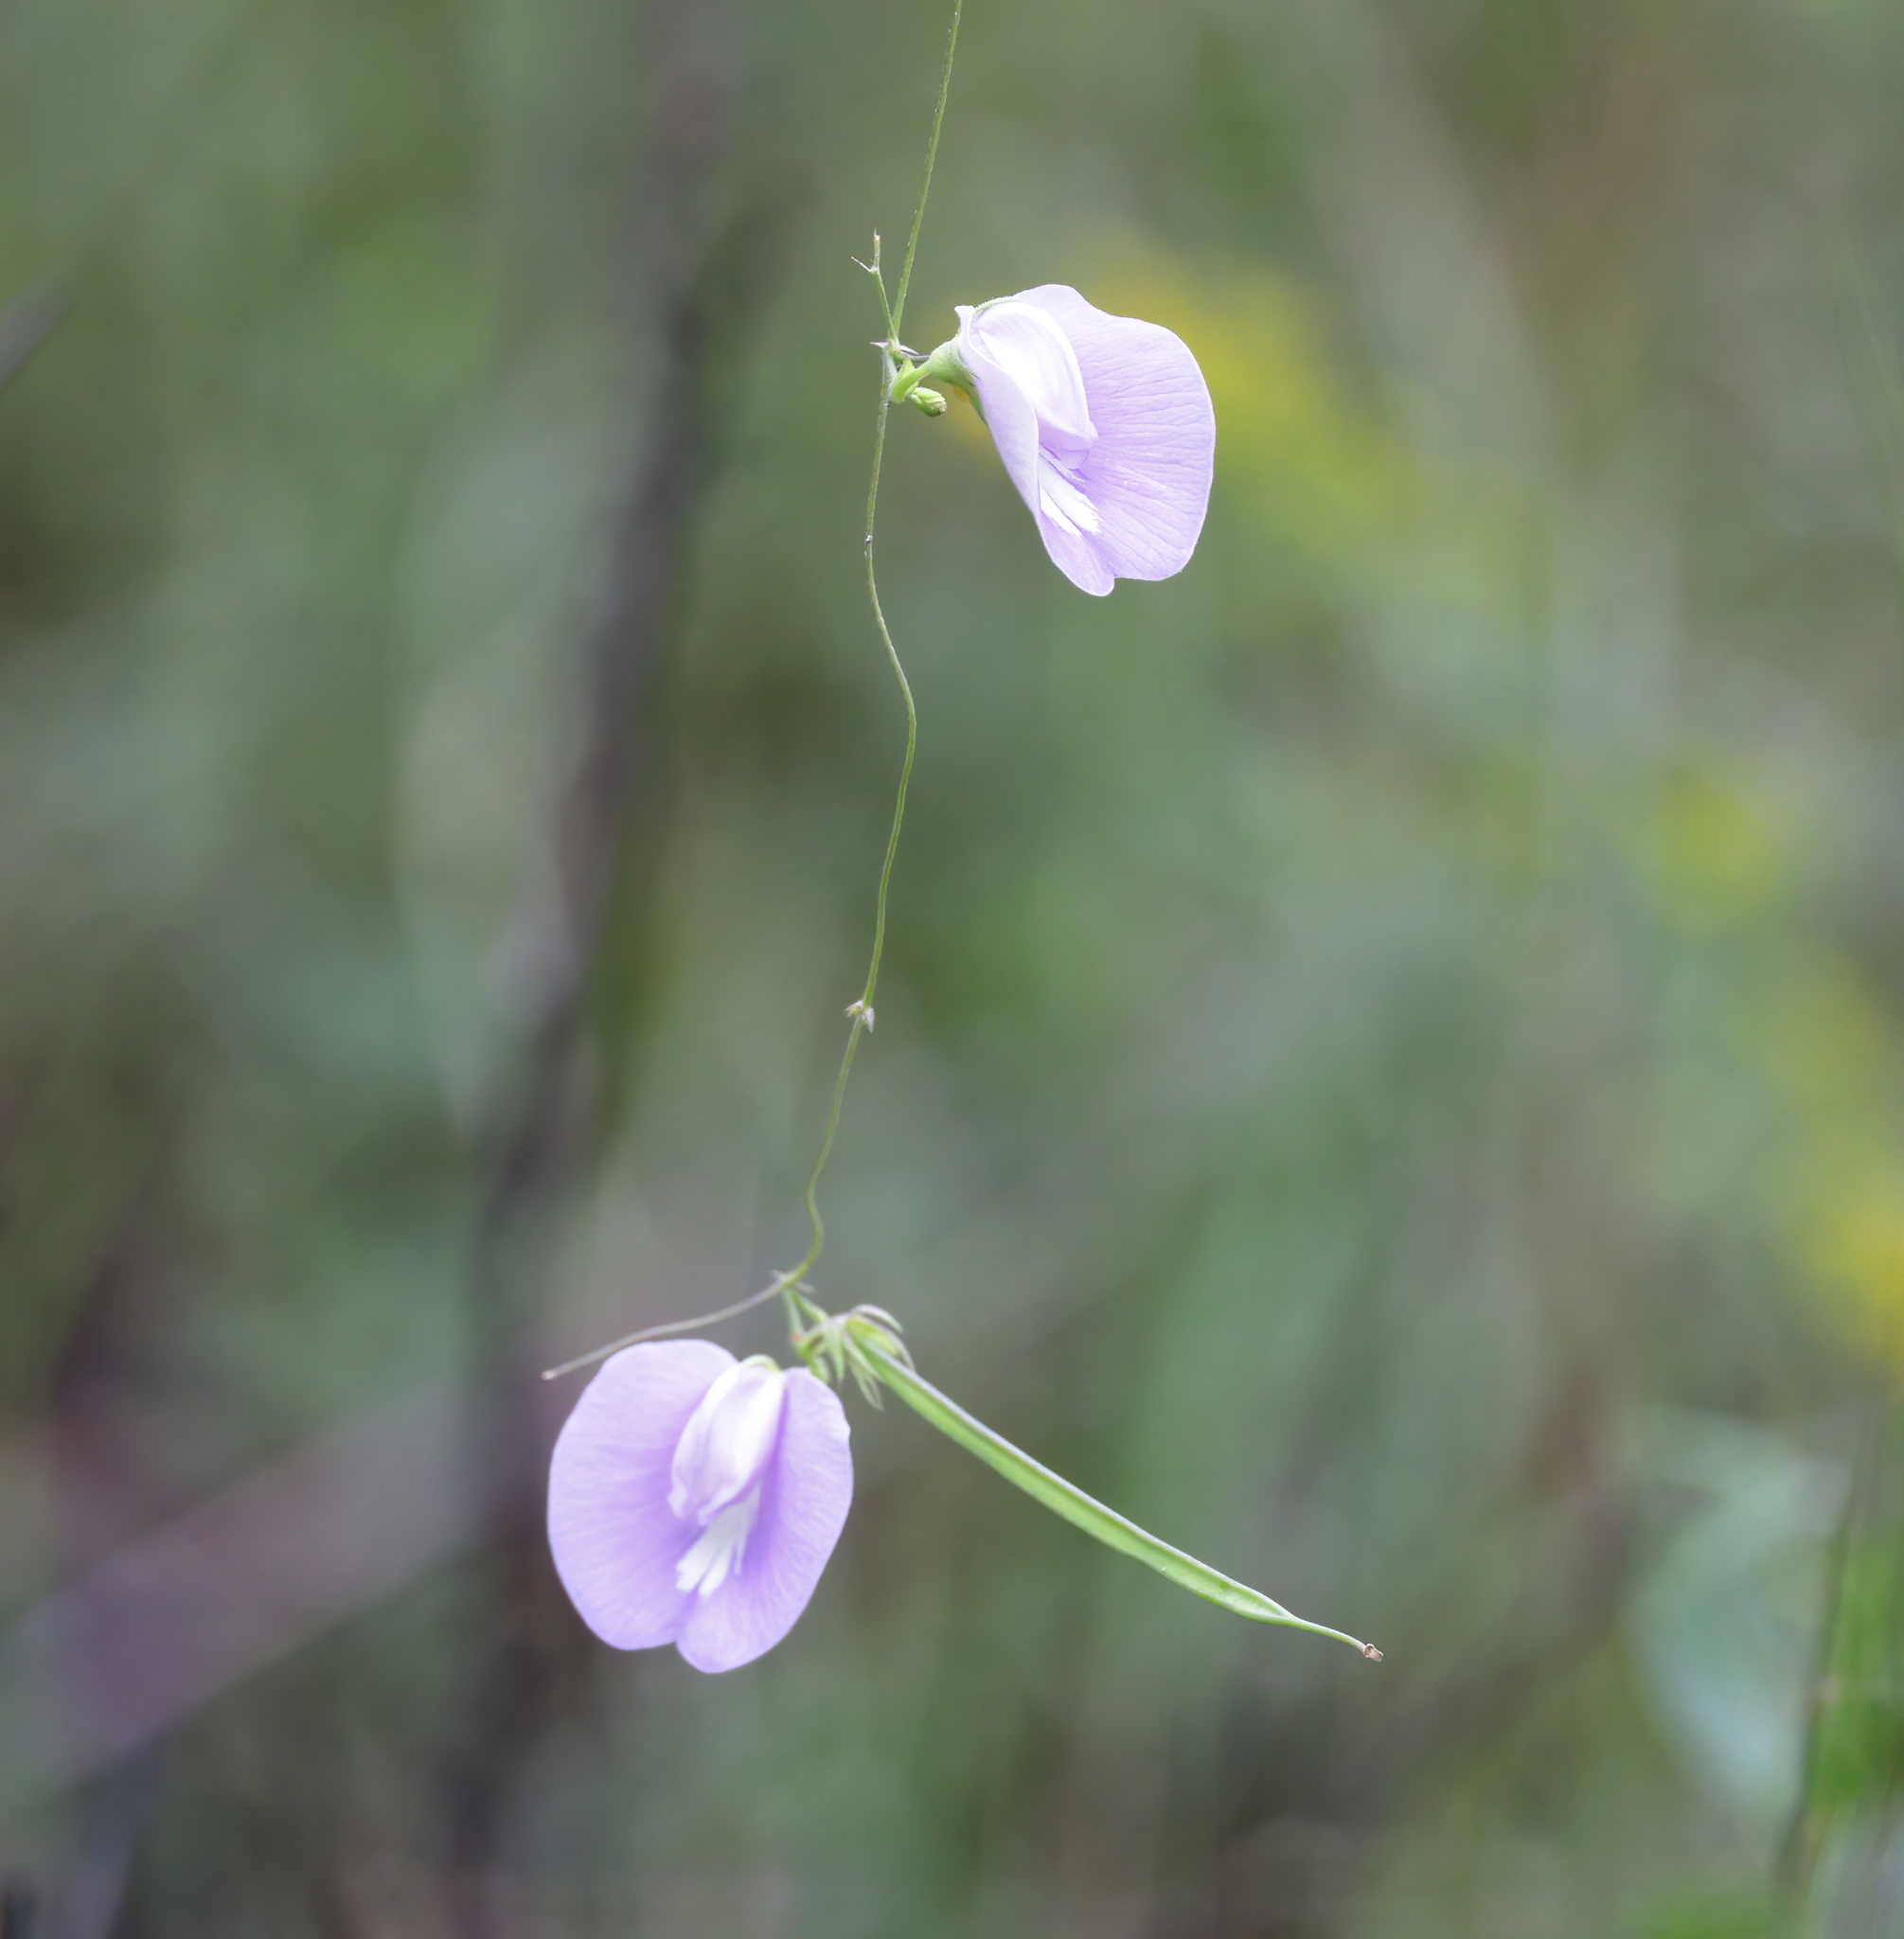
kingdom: Plantae
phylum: Tracheophyta
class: Magnoliopsida
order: Fabales
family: Fabaceae
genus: Centrosema
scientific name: Centrosema virginianum
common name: Butterfly-pea
